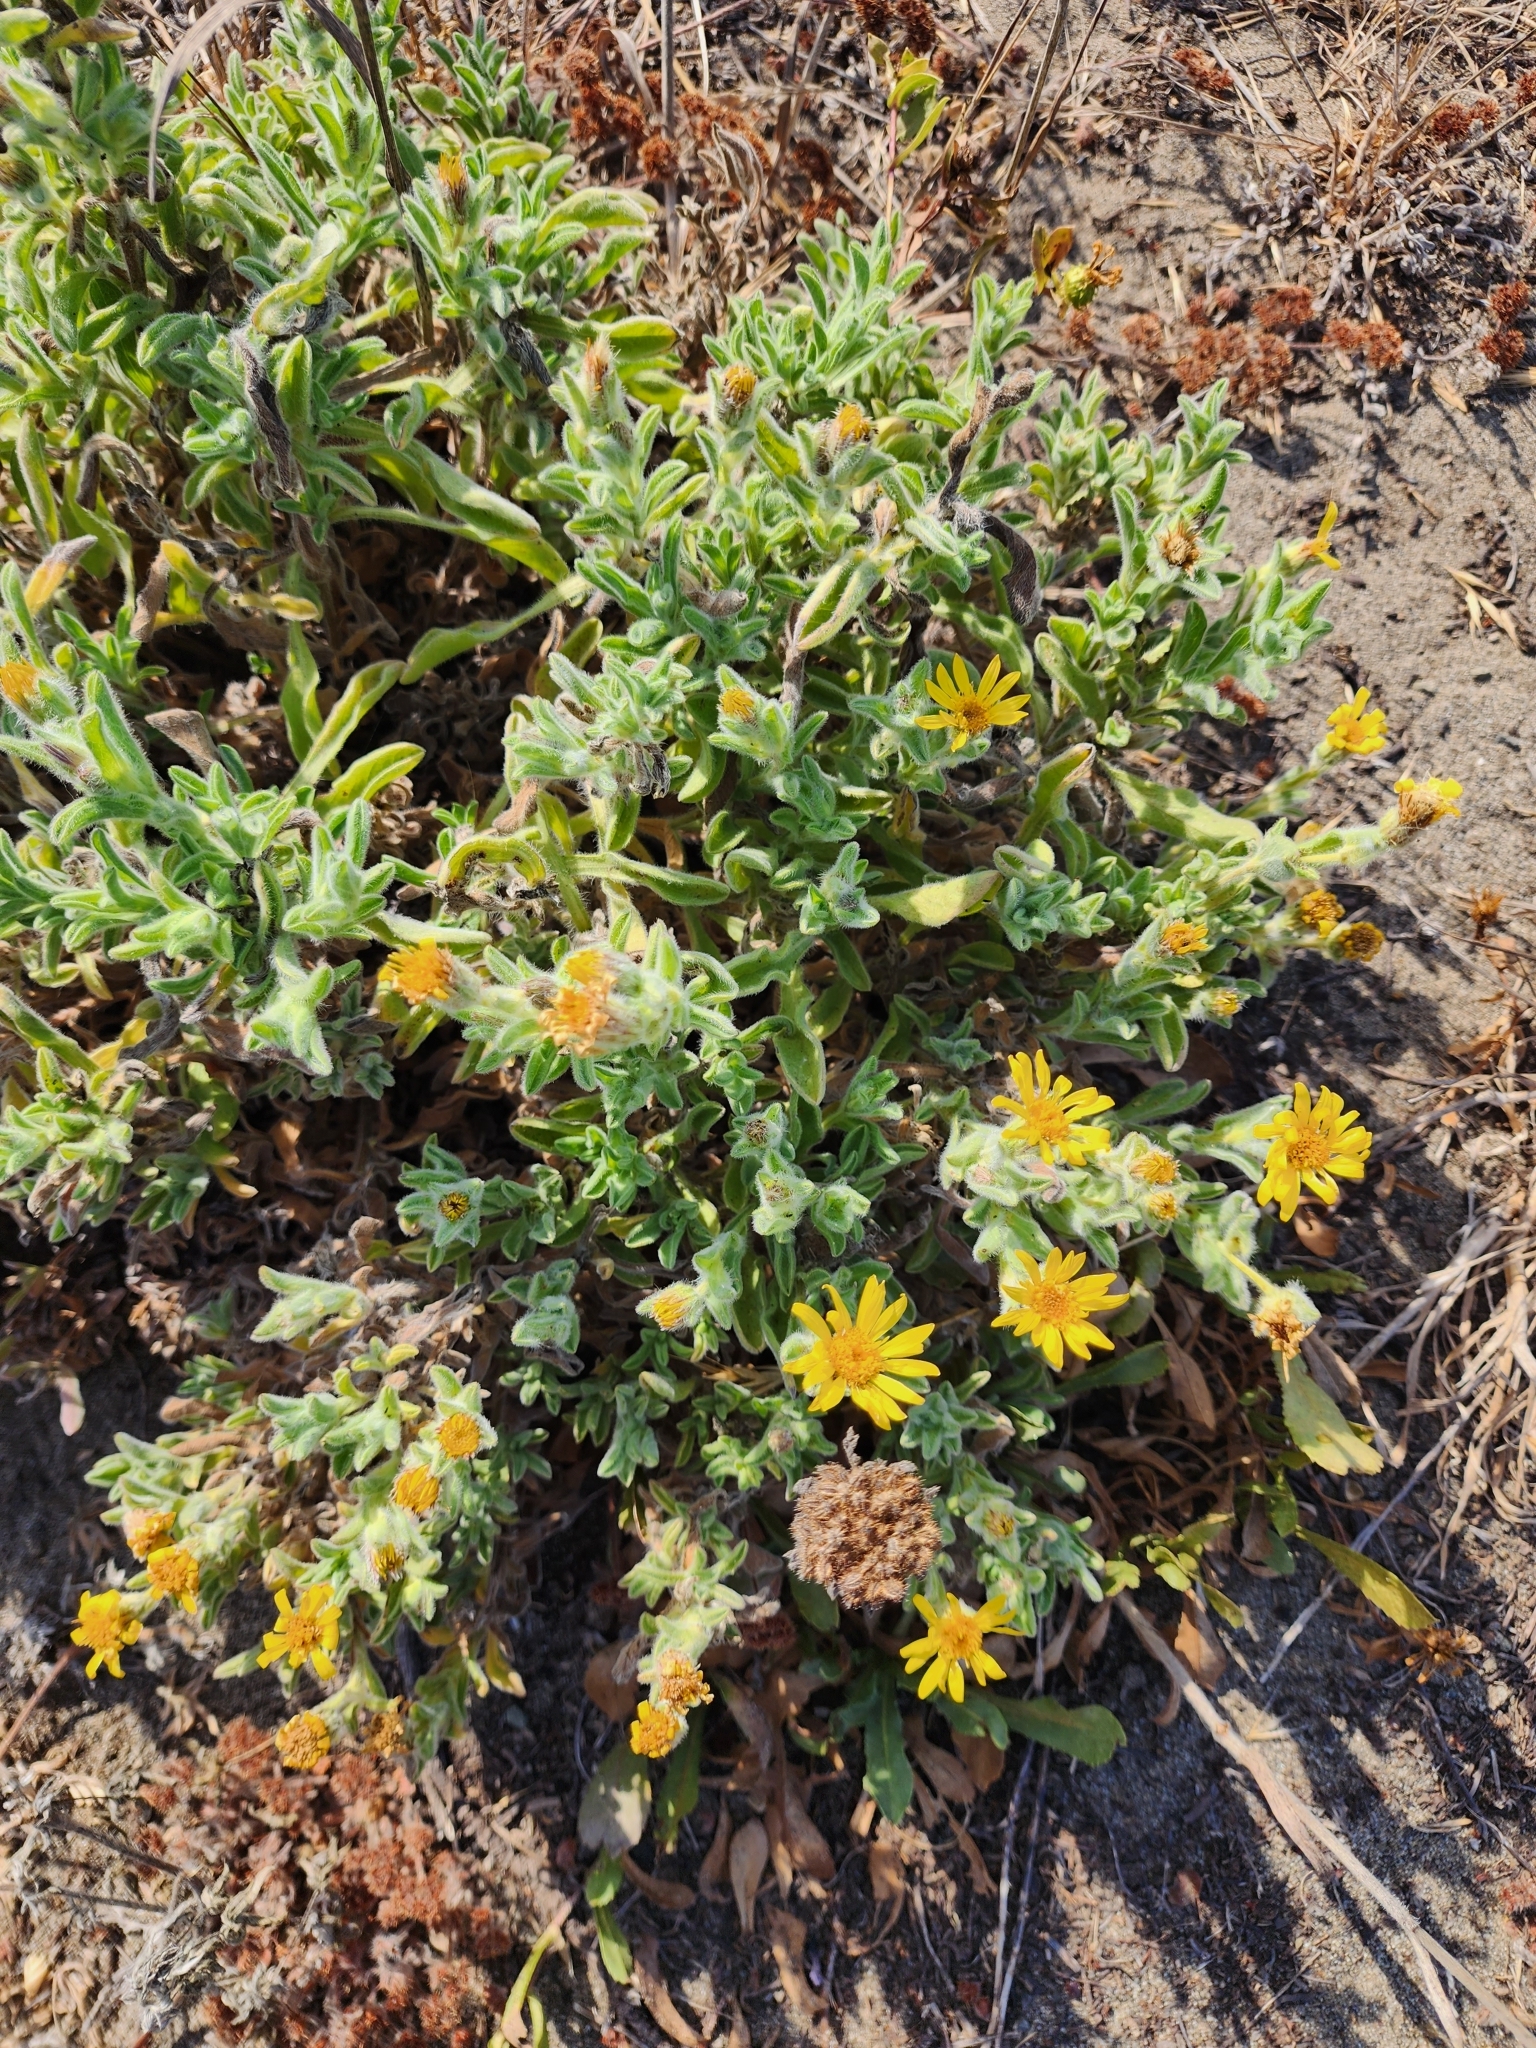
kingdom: Plantae
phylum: Tracheophyta
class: Magnoliopsida
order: Asterales
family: Asteraceae
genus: Heterotheca
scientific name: Heterotheca sessiliflora
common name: Sessile-flower golden-aster
